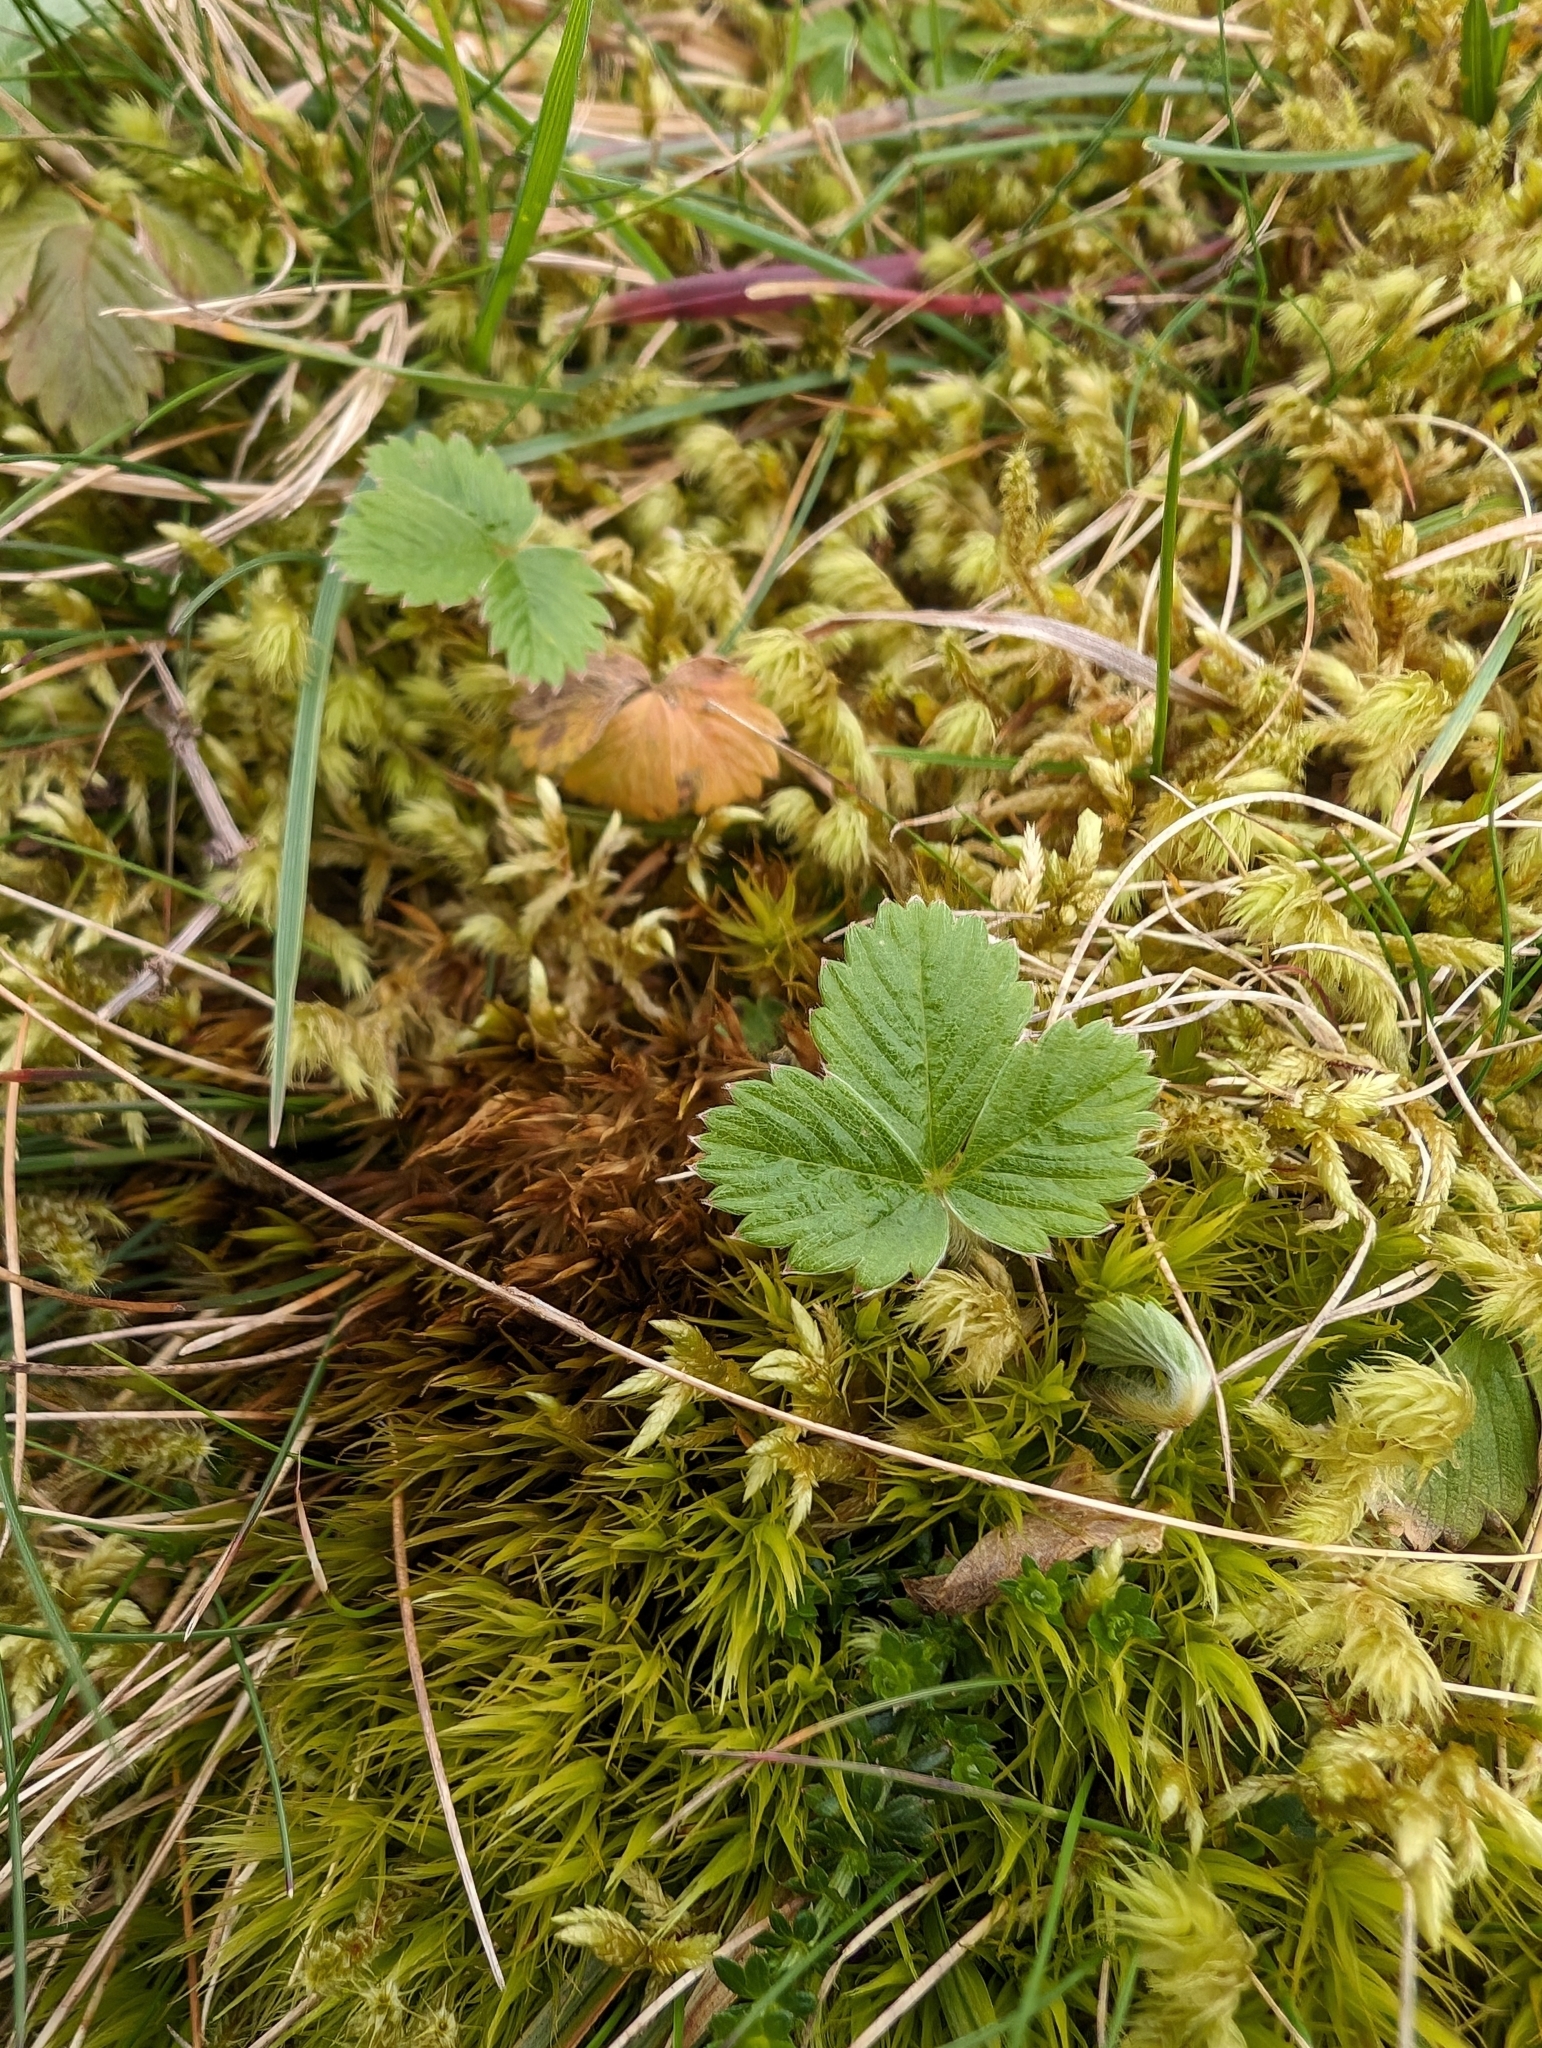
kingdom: Plantae
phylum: Tracheophyta
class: Magnoliopsida
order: Rosales
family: Rosaceae
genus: Fragaria
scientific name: Fragaria vesca
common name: Wild strawberry
